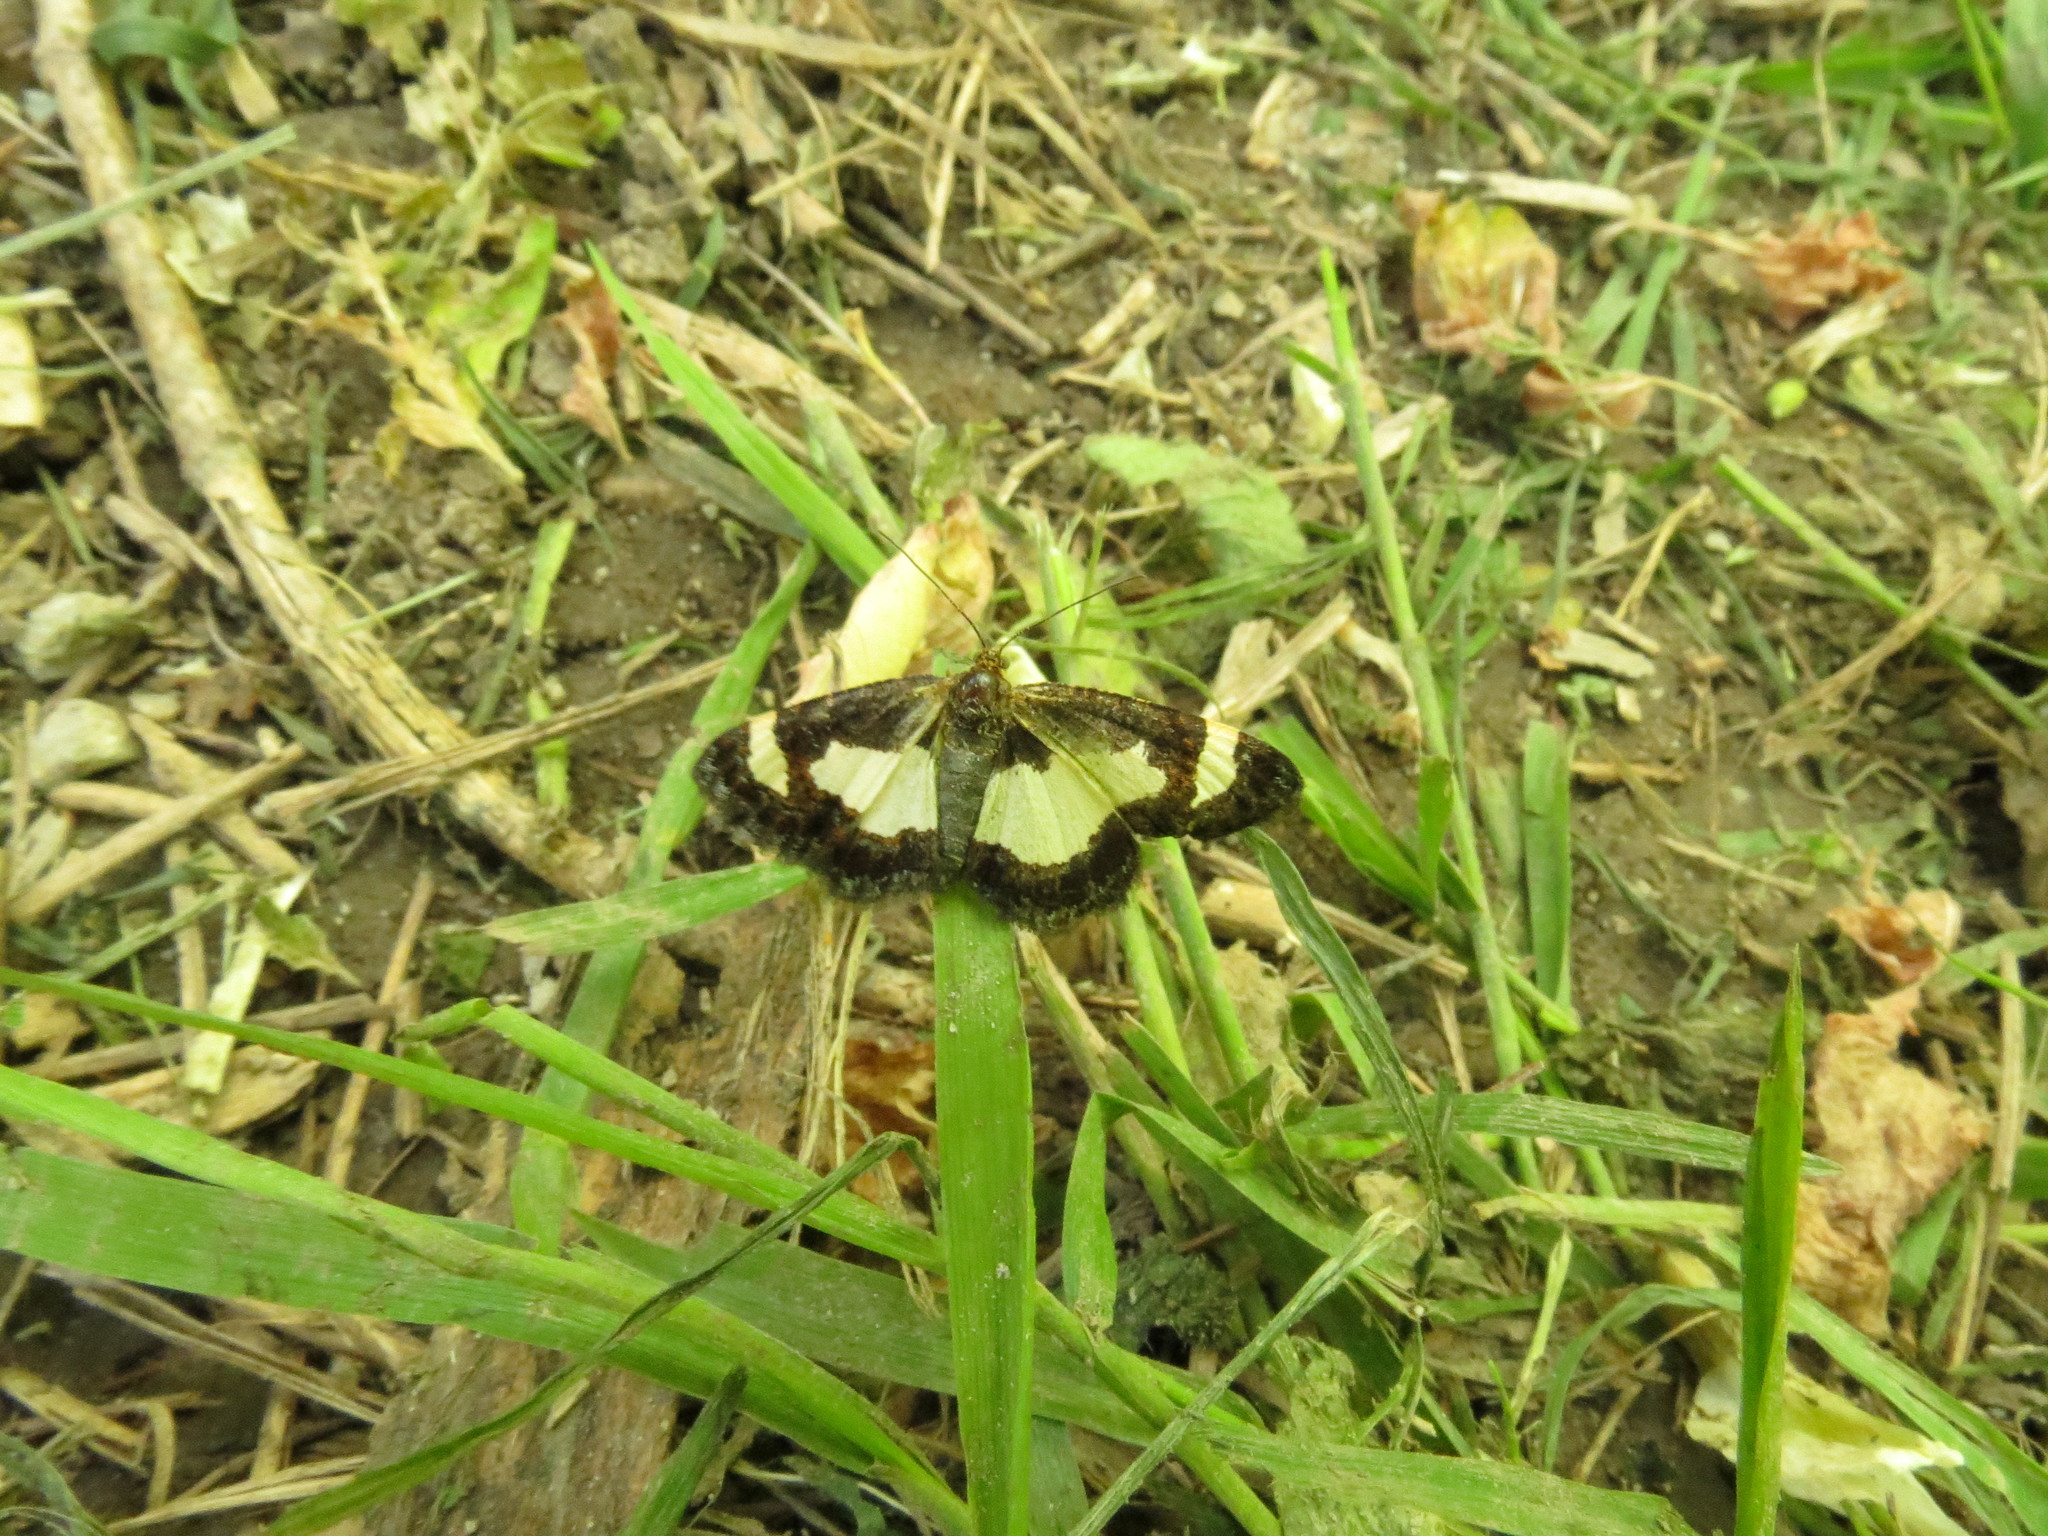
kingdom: Animalia
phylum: Arthropoda
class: Insecta
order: Lepidoptera
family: Geometridae
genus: Heliomata
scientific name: Heliomata cycladata
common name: Common spring moth
